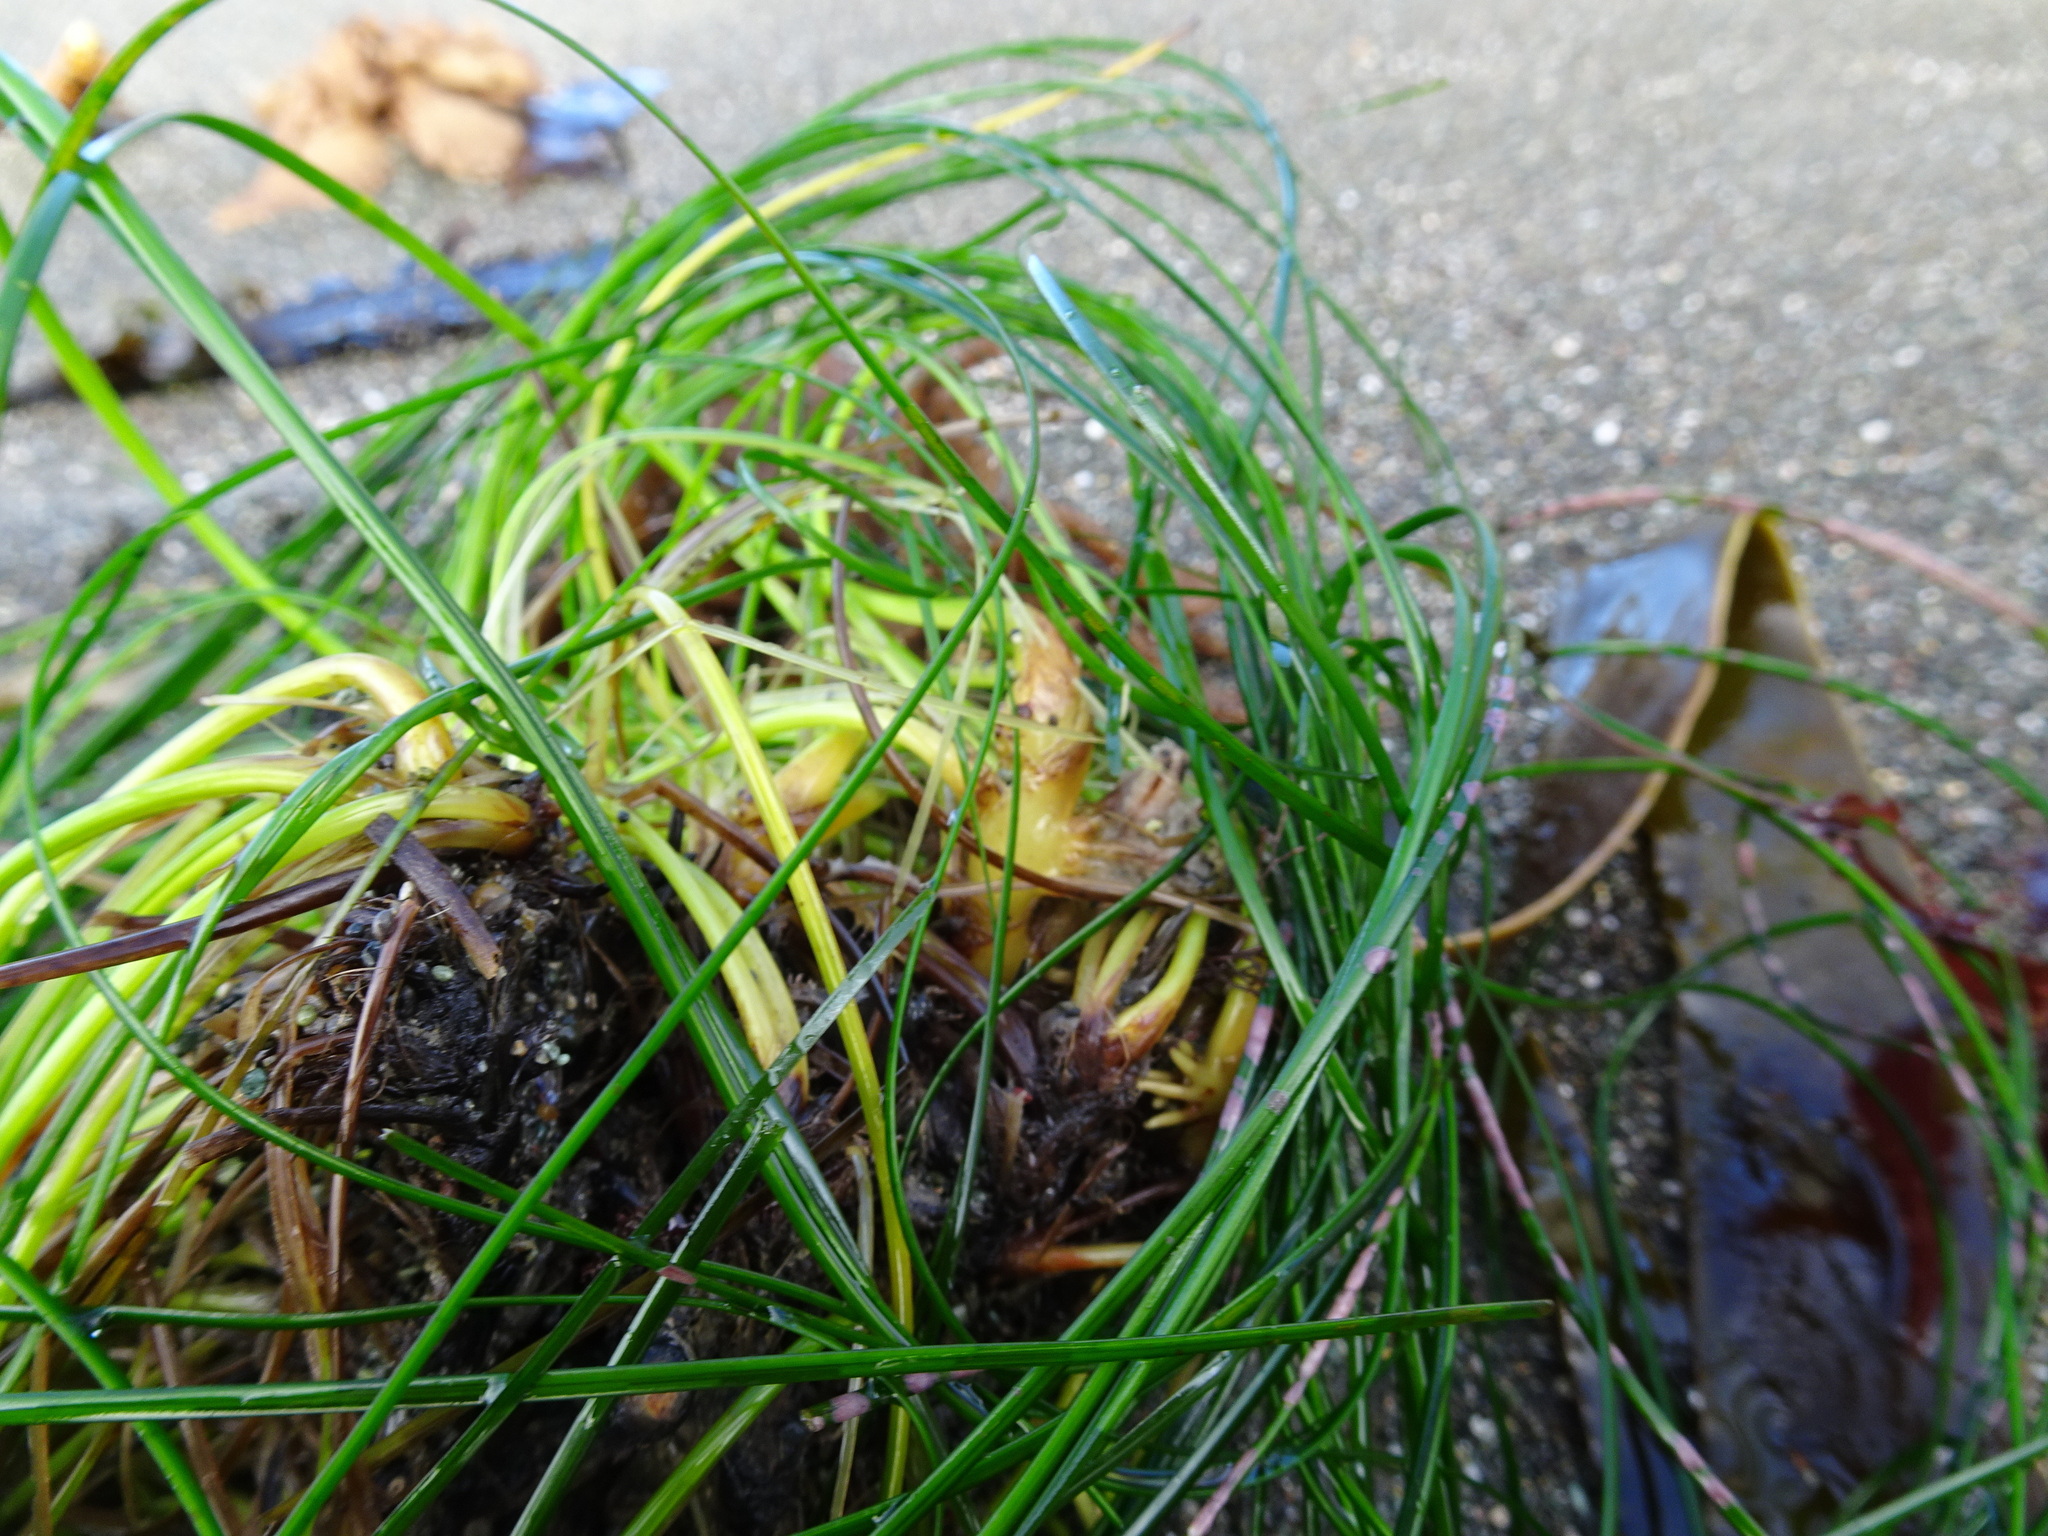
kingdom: Plantae
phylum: Tracheophyta
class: Liliopsida
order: Alismatales
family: Zosteraceae
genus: Phyllospadix
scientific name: Phyllospadix torreyi
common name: Surfgrass
